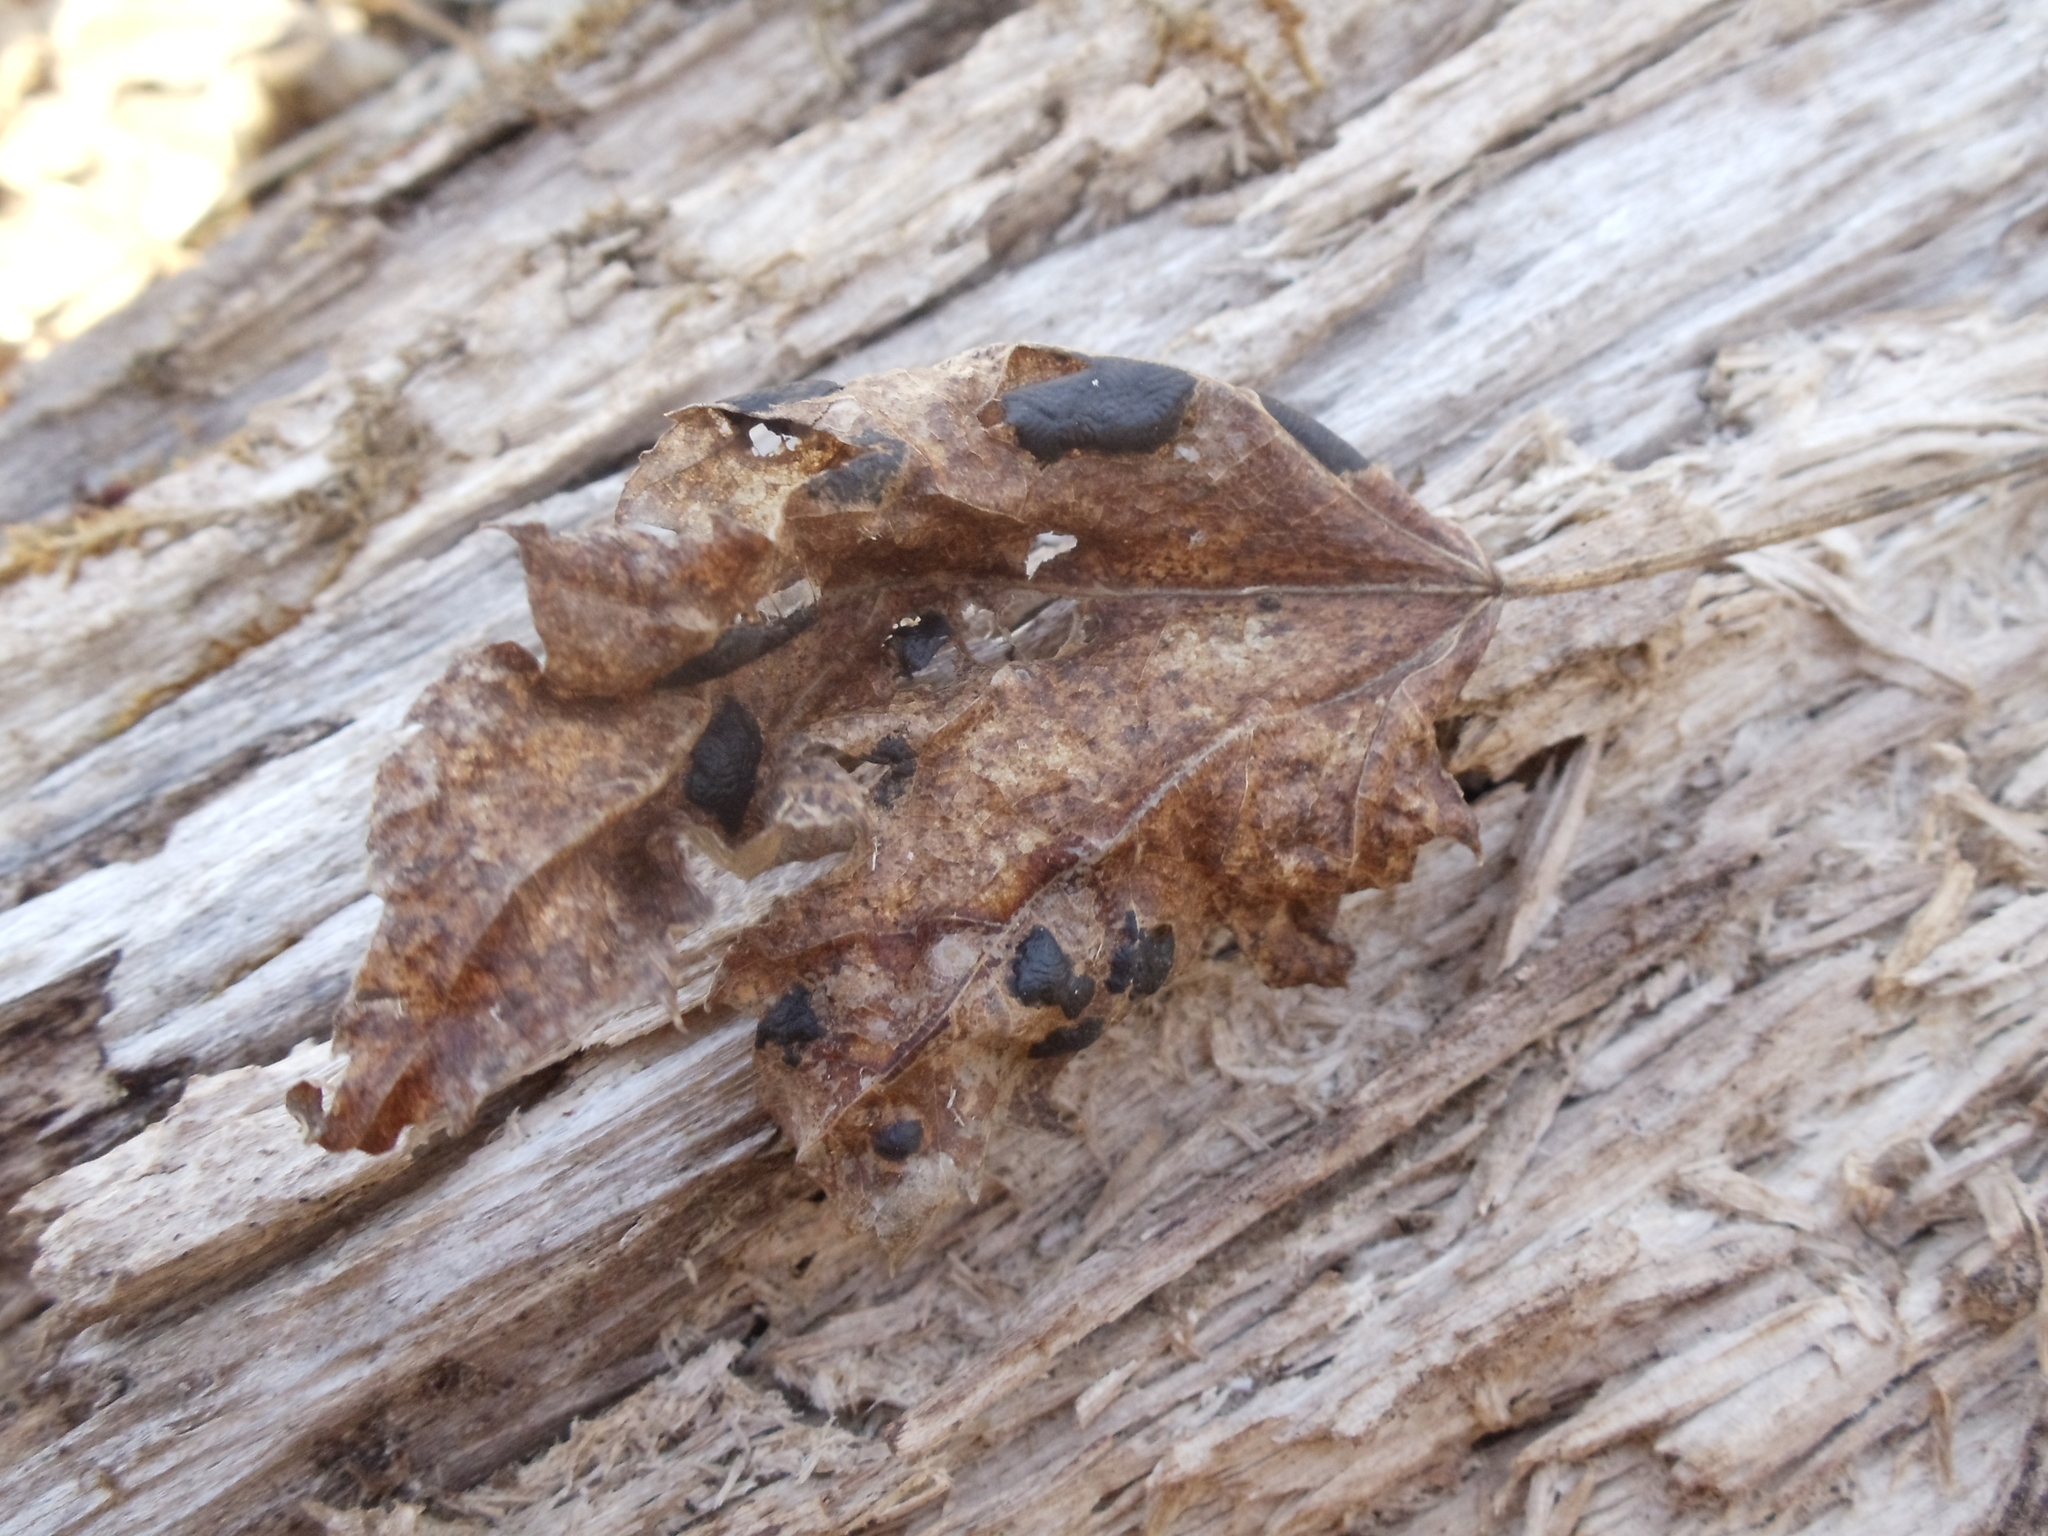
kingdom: Fungi
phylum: Ascomycota
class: Leotiomycetes
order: Rhytismatales
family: Rhytismataceae
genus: Rhytisma
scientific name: Rhytisma americanum
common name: American tar spot
